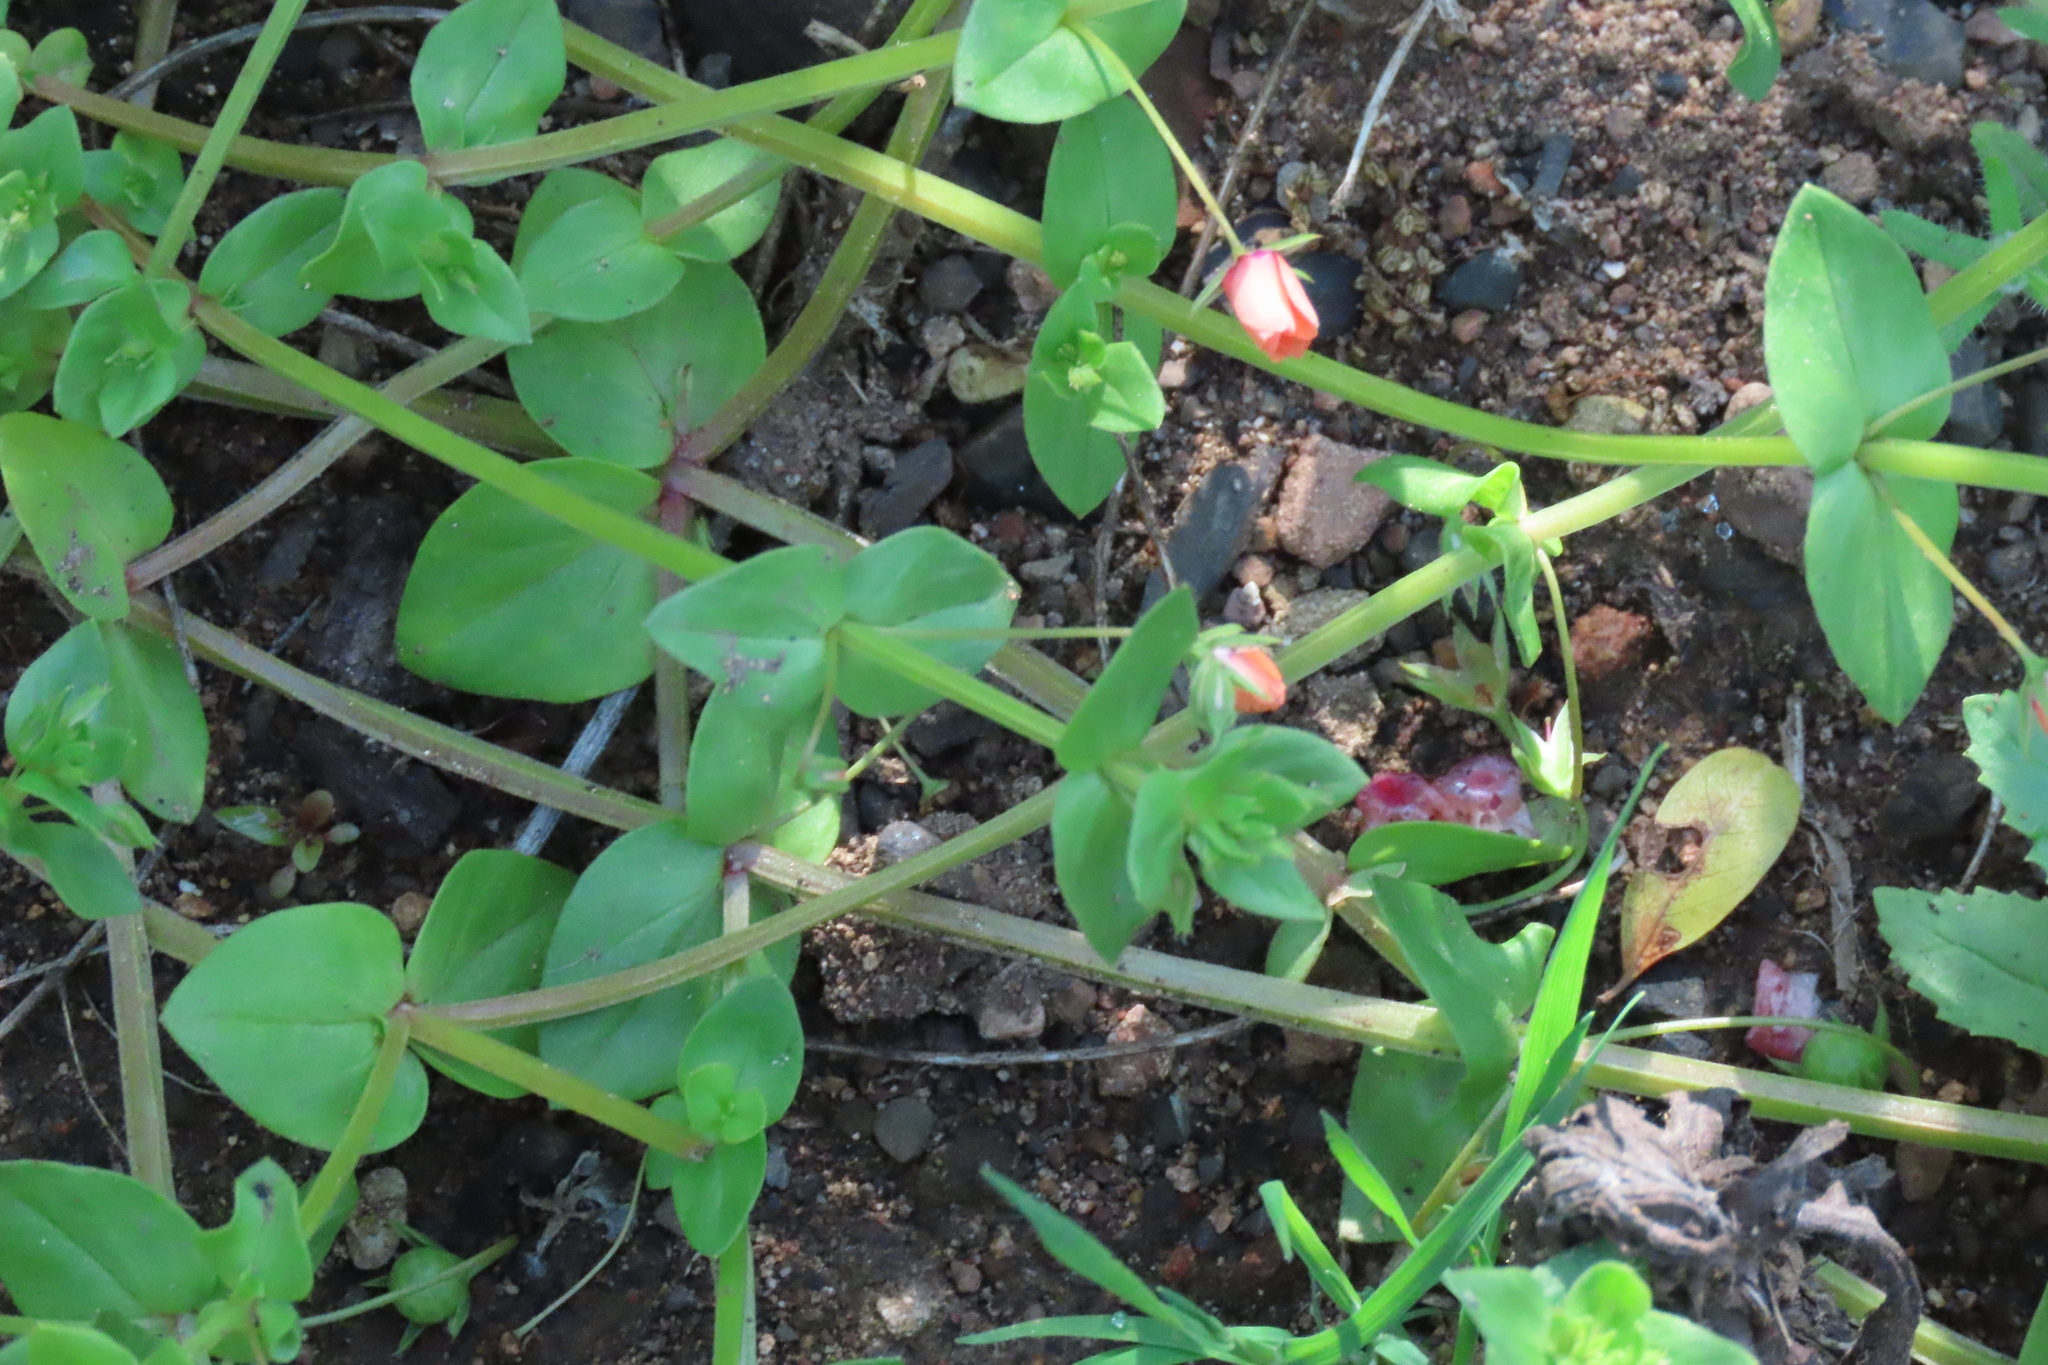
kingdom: Plantae
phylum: Tracheophyta
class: Magnoliopsida
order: Ericales
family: Primulaceae
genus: Lysimachia
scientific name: Lysimachia arvensis
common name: Scarlet pimpernel
